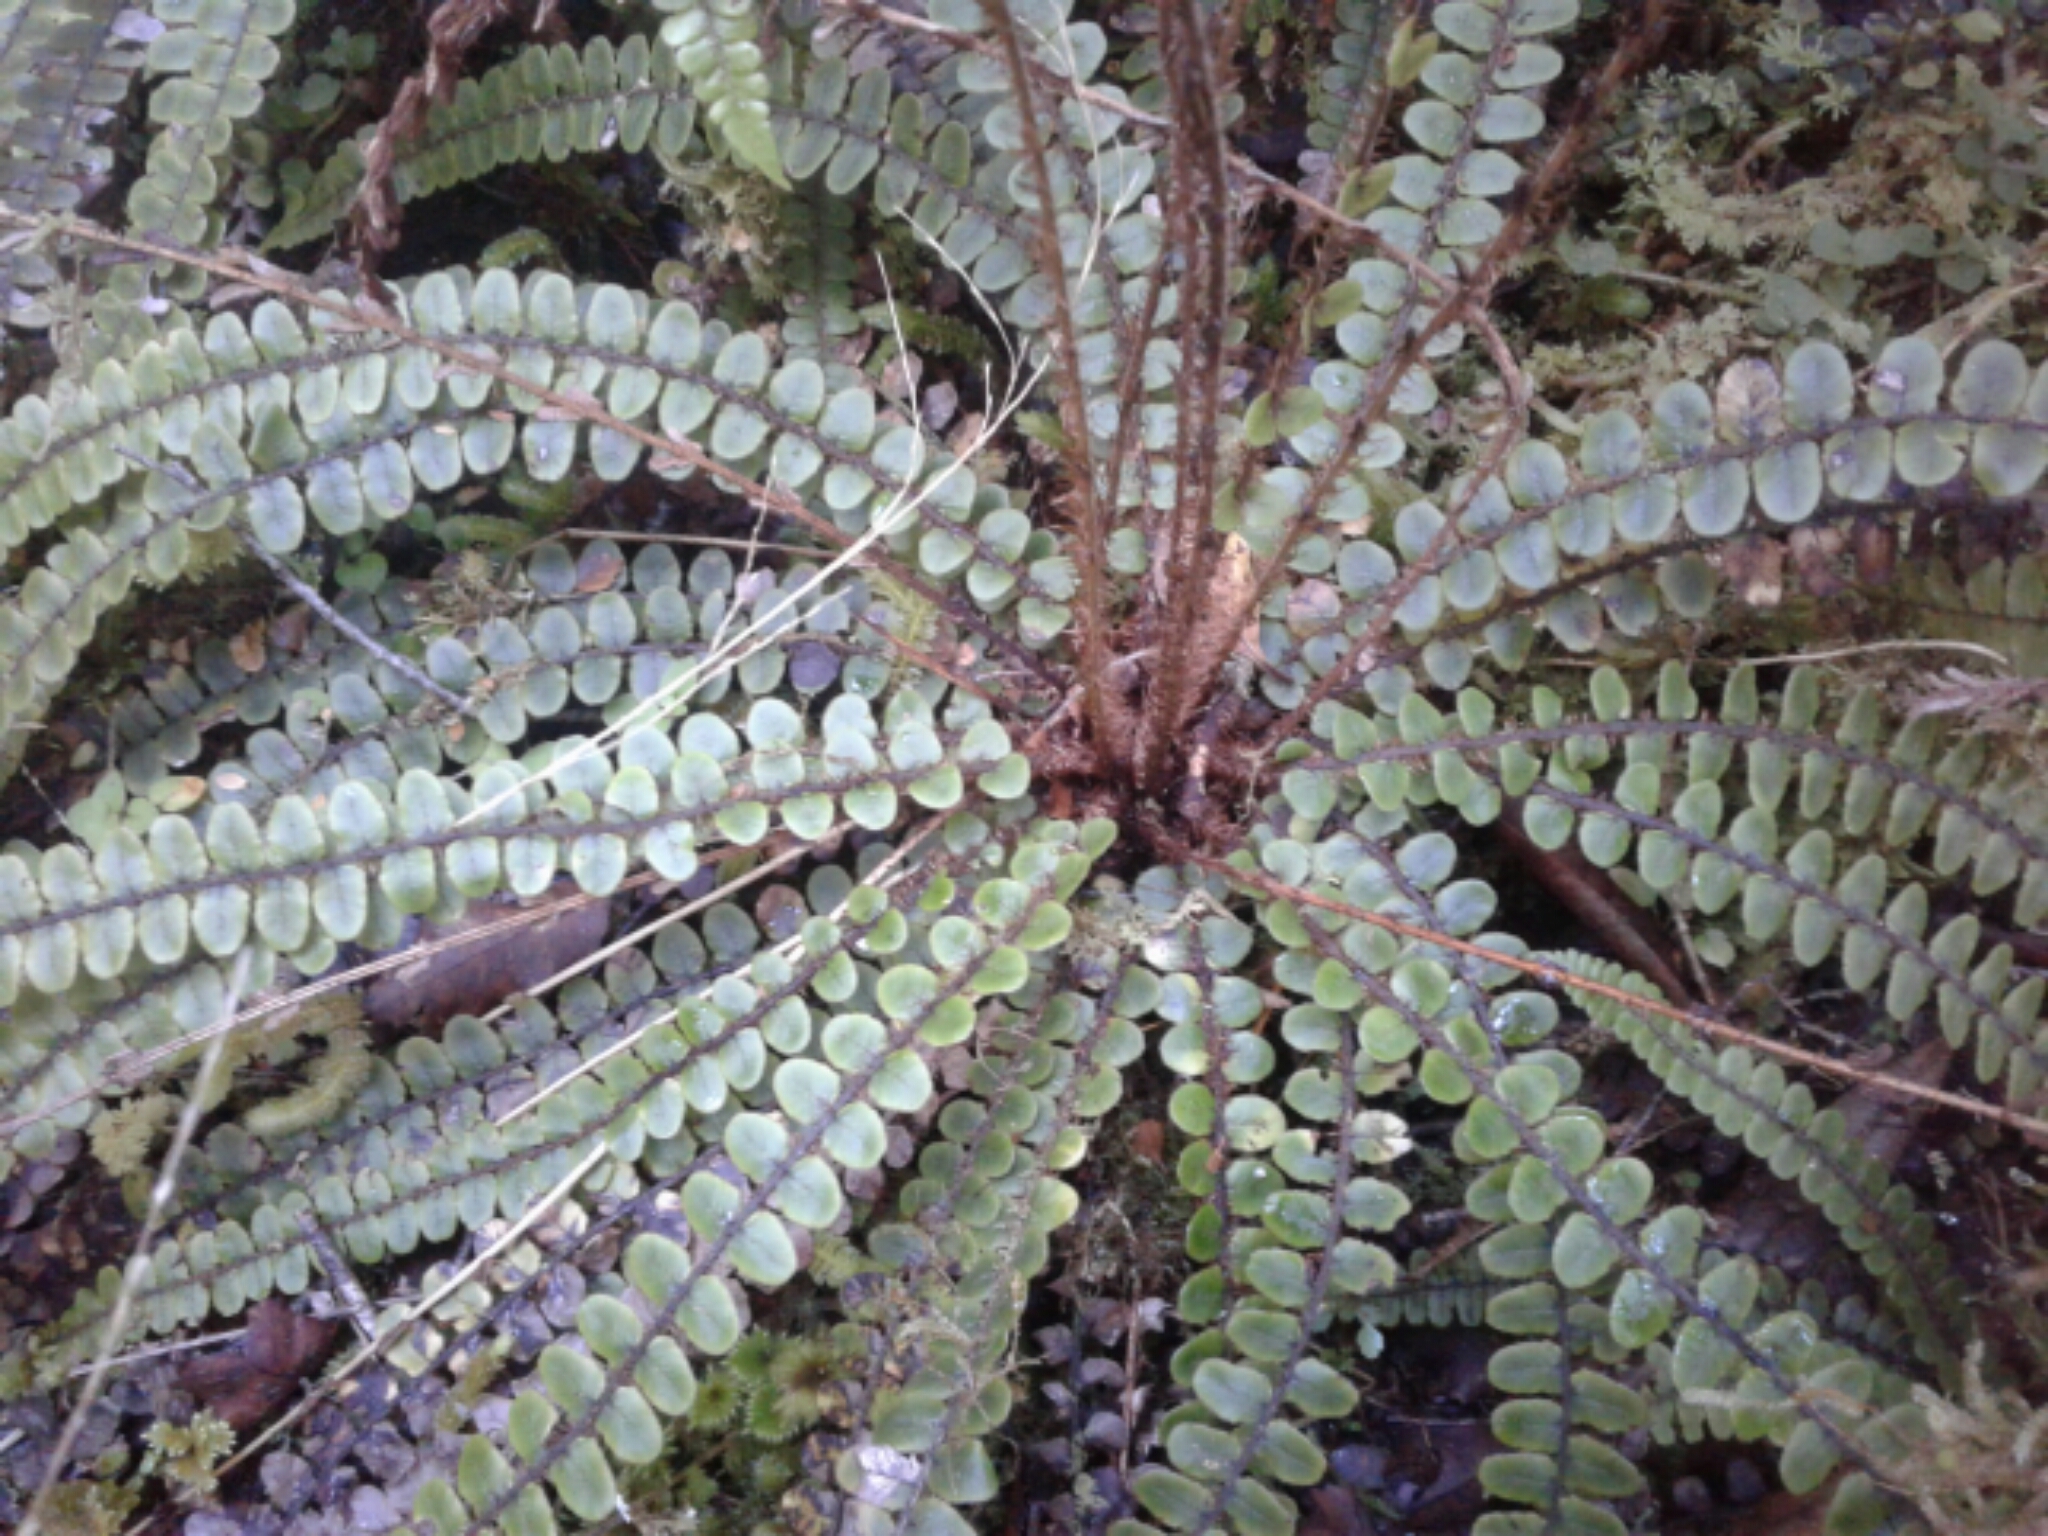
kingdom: Plantae
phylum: Tracheophyta
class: Polypodiopsida
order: Polypodiales
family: Blechnaceae
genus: Cranfillia
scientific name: Cranfillia fluviatilis
